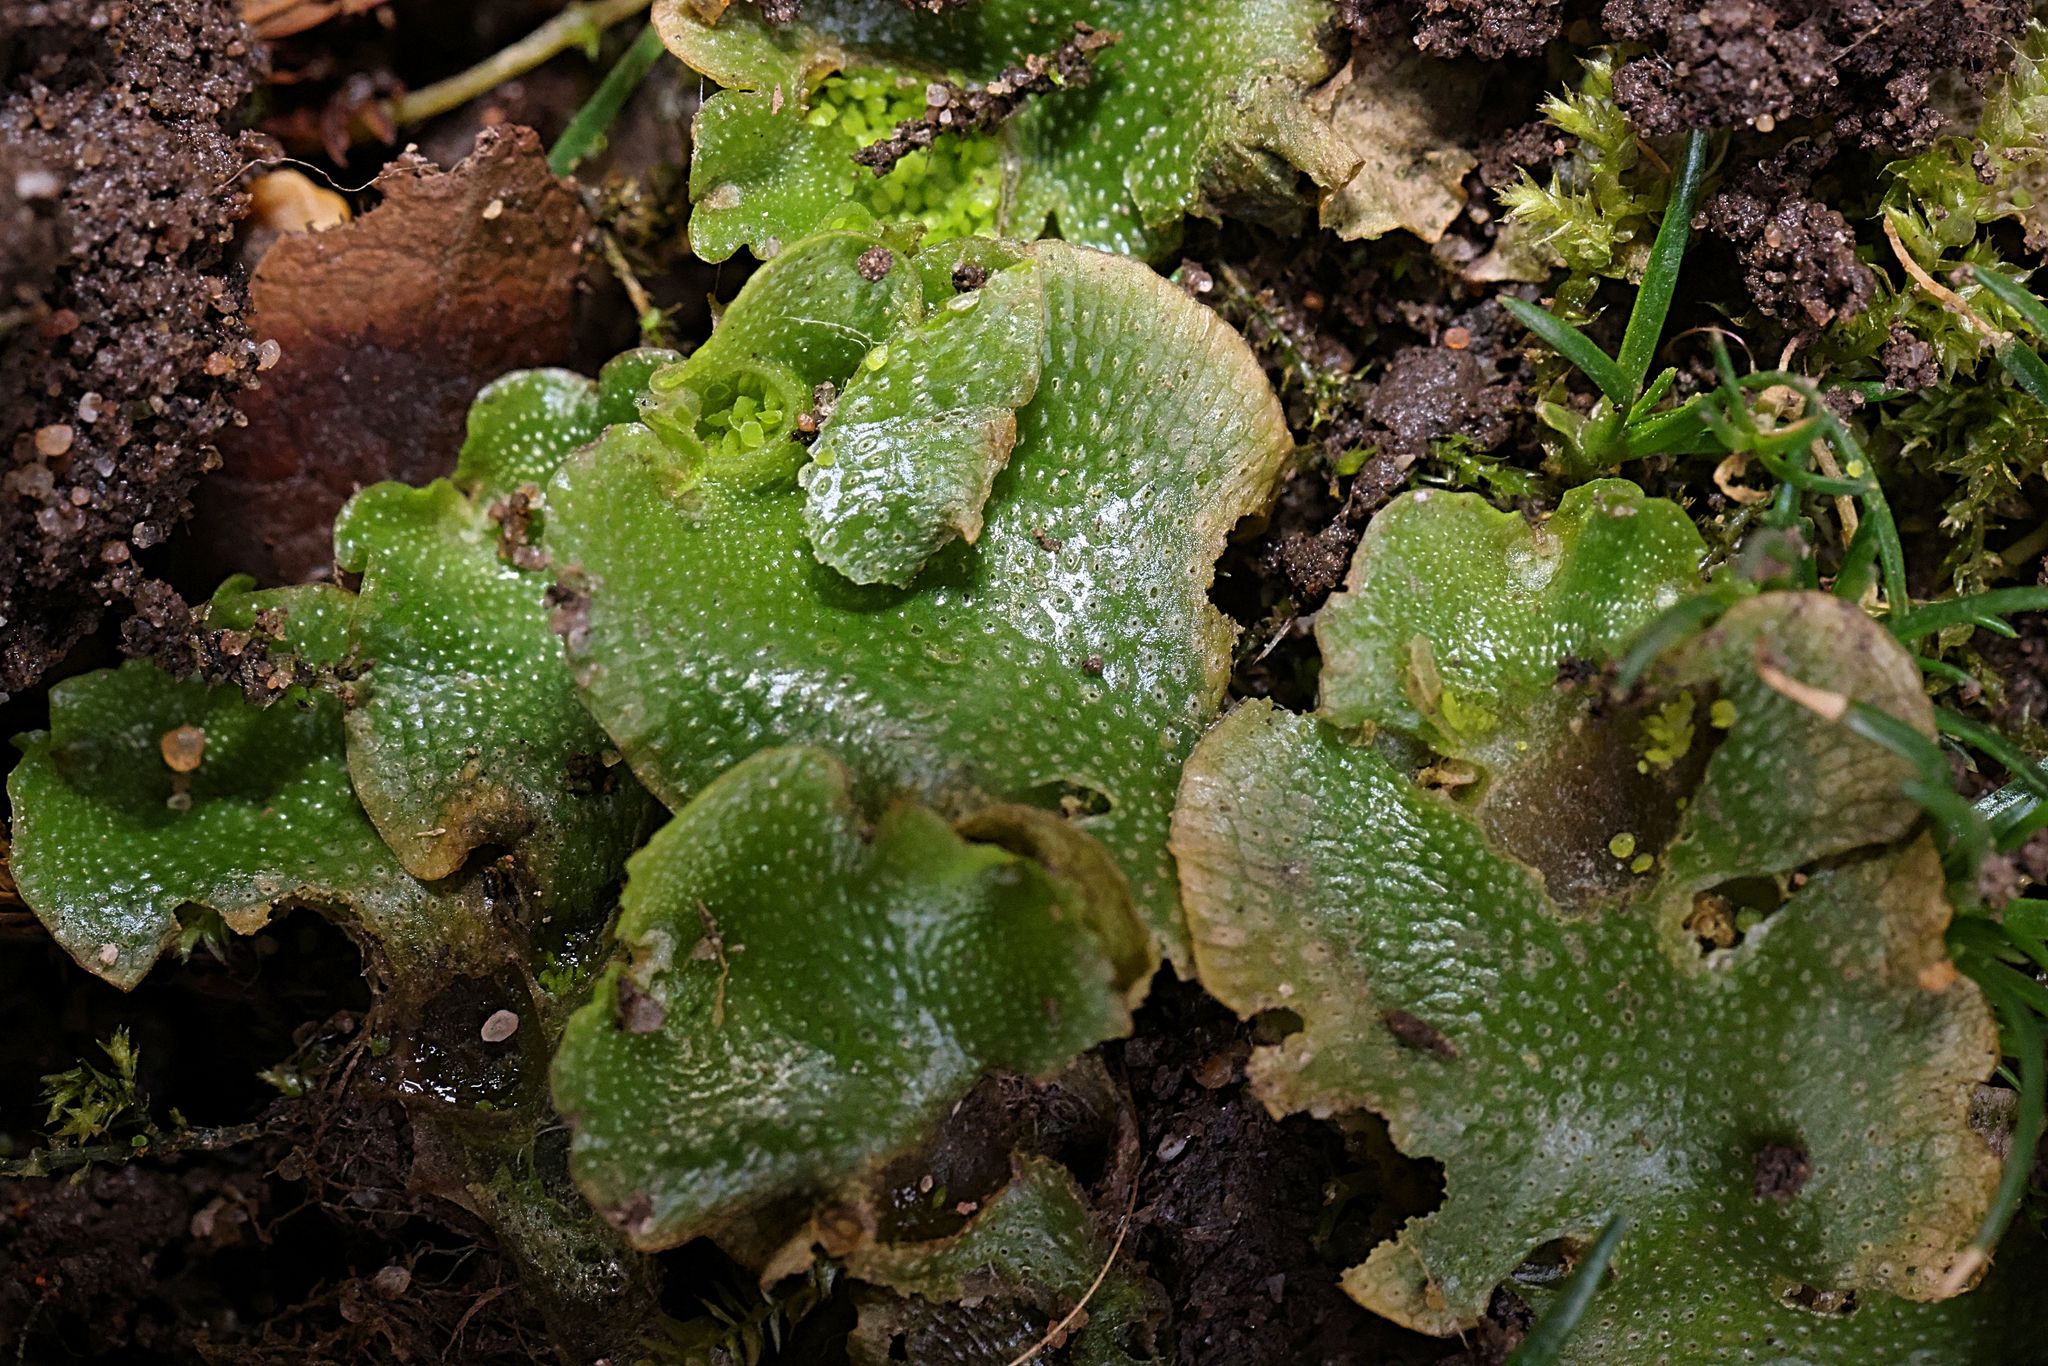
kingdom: Plantae
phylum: Marchantiophyta
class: Marchantiopsida
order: Lunulariales
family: Lunulariaceae
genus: Lunularia
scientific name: Lunularia cruciata
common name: Crescent-cup liverwort
